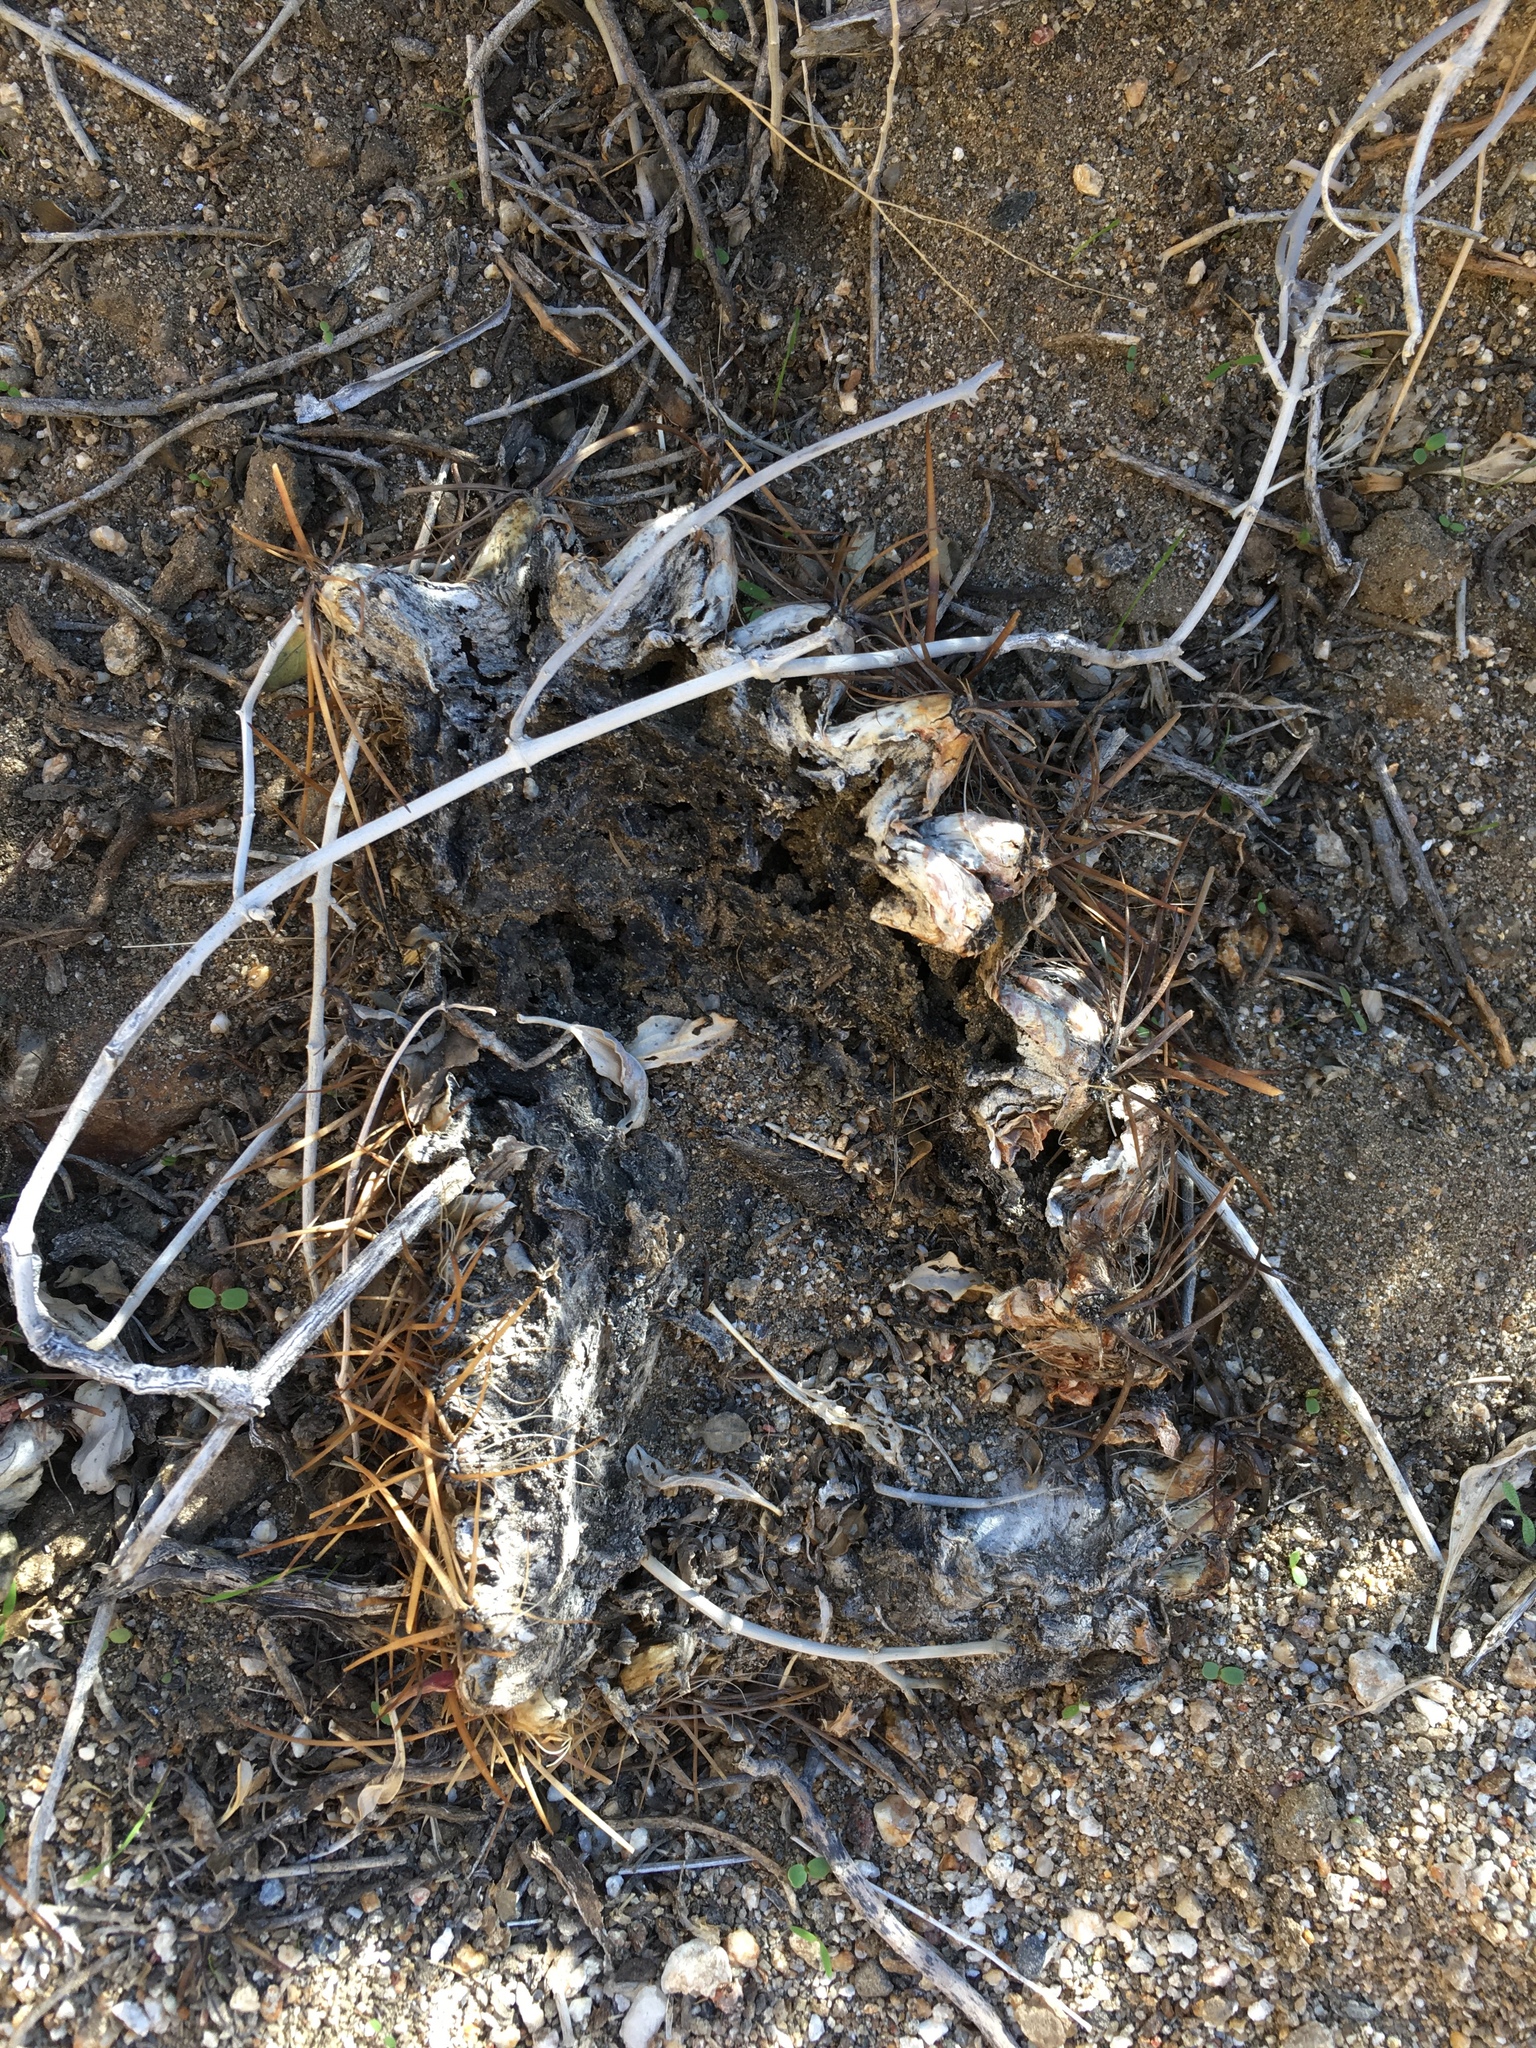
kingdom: Plantae
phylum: Tracheophyta
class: Magnoliopsida
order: Caryophyllales
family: Cactaceae
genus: Ferocactus
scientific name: Ferocactus cylindraceus
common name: California barrel cactus
